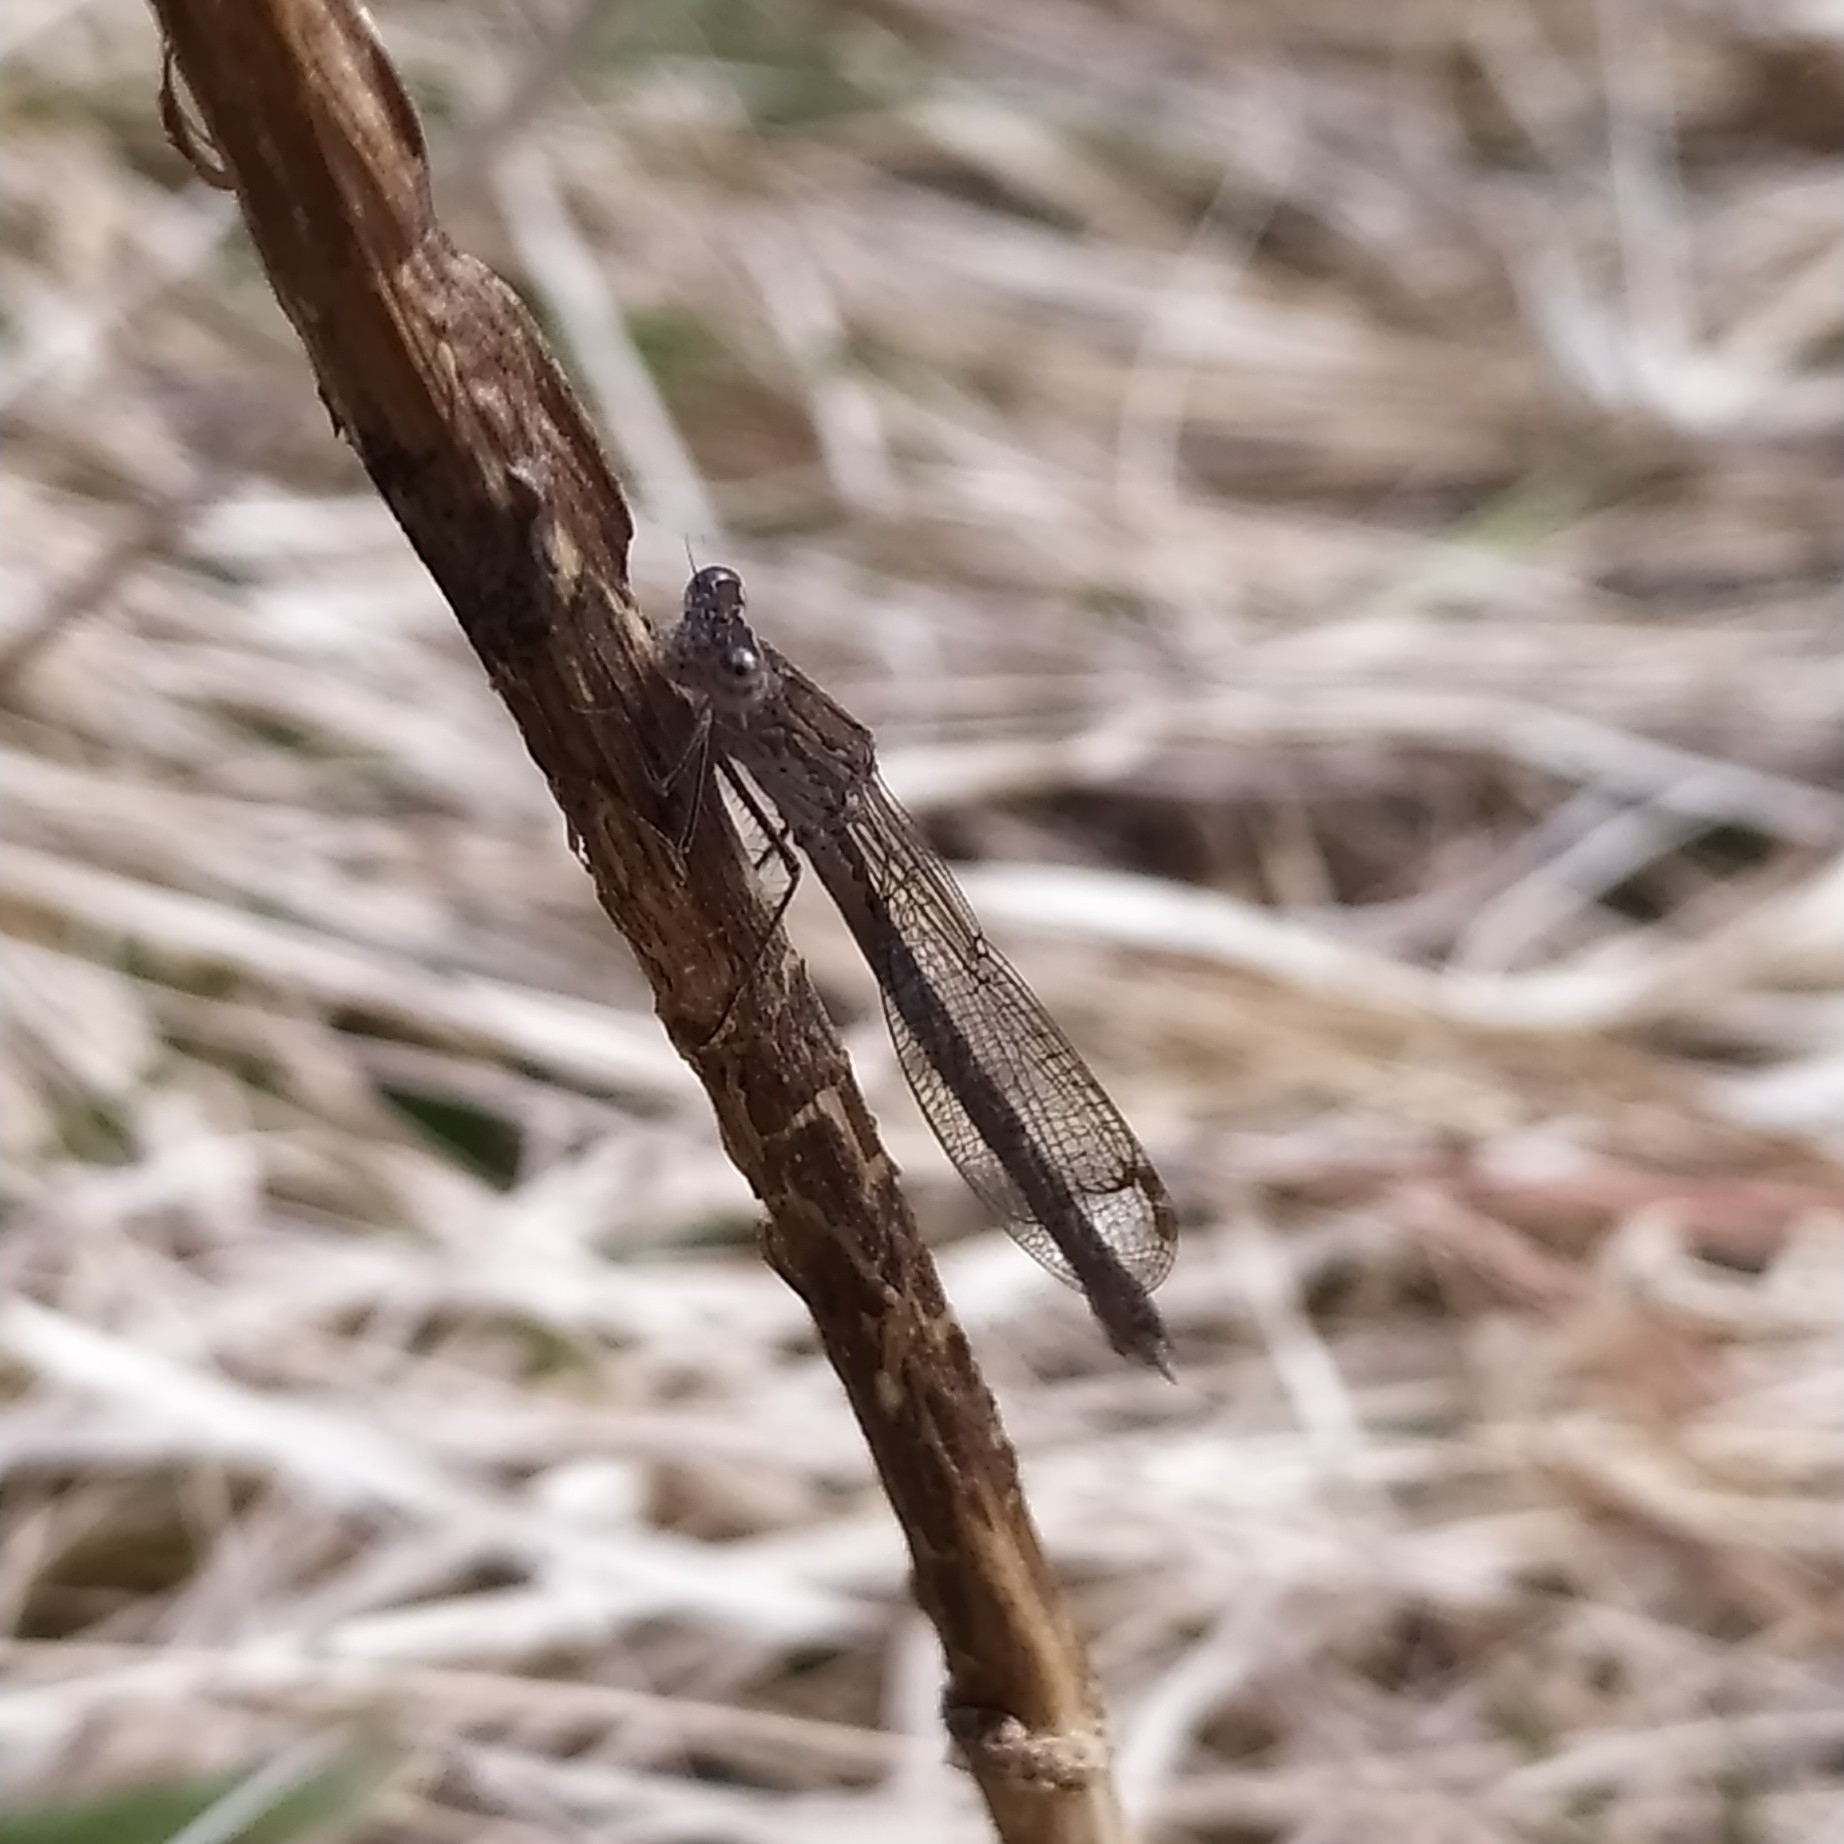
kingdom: Animalia
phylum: Arthropoda
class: Insecta
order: Odonata
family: Lestidae
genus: Sympecma
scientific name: Sympecma paedisca
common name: Siberian winter damsel
